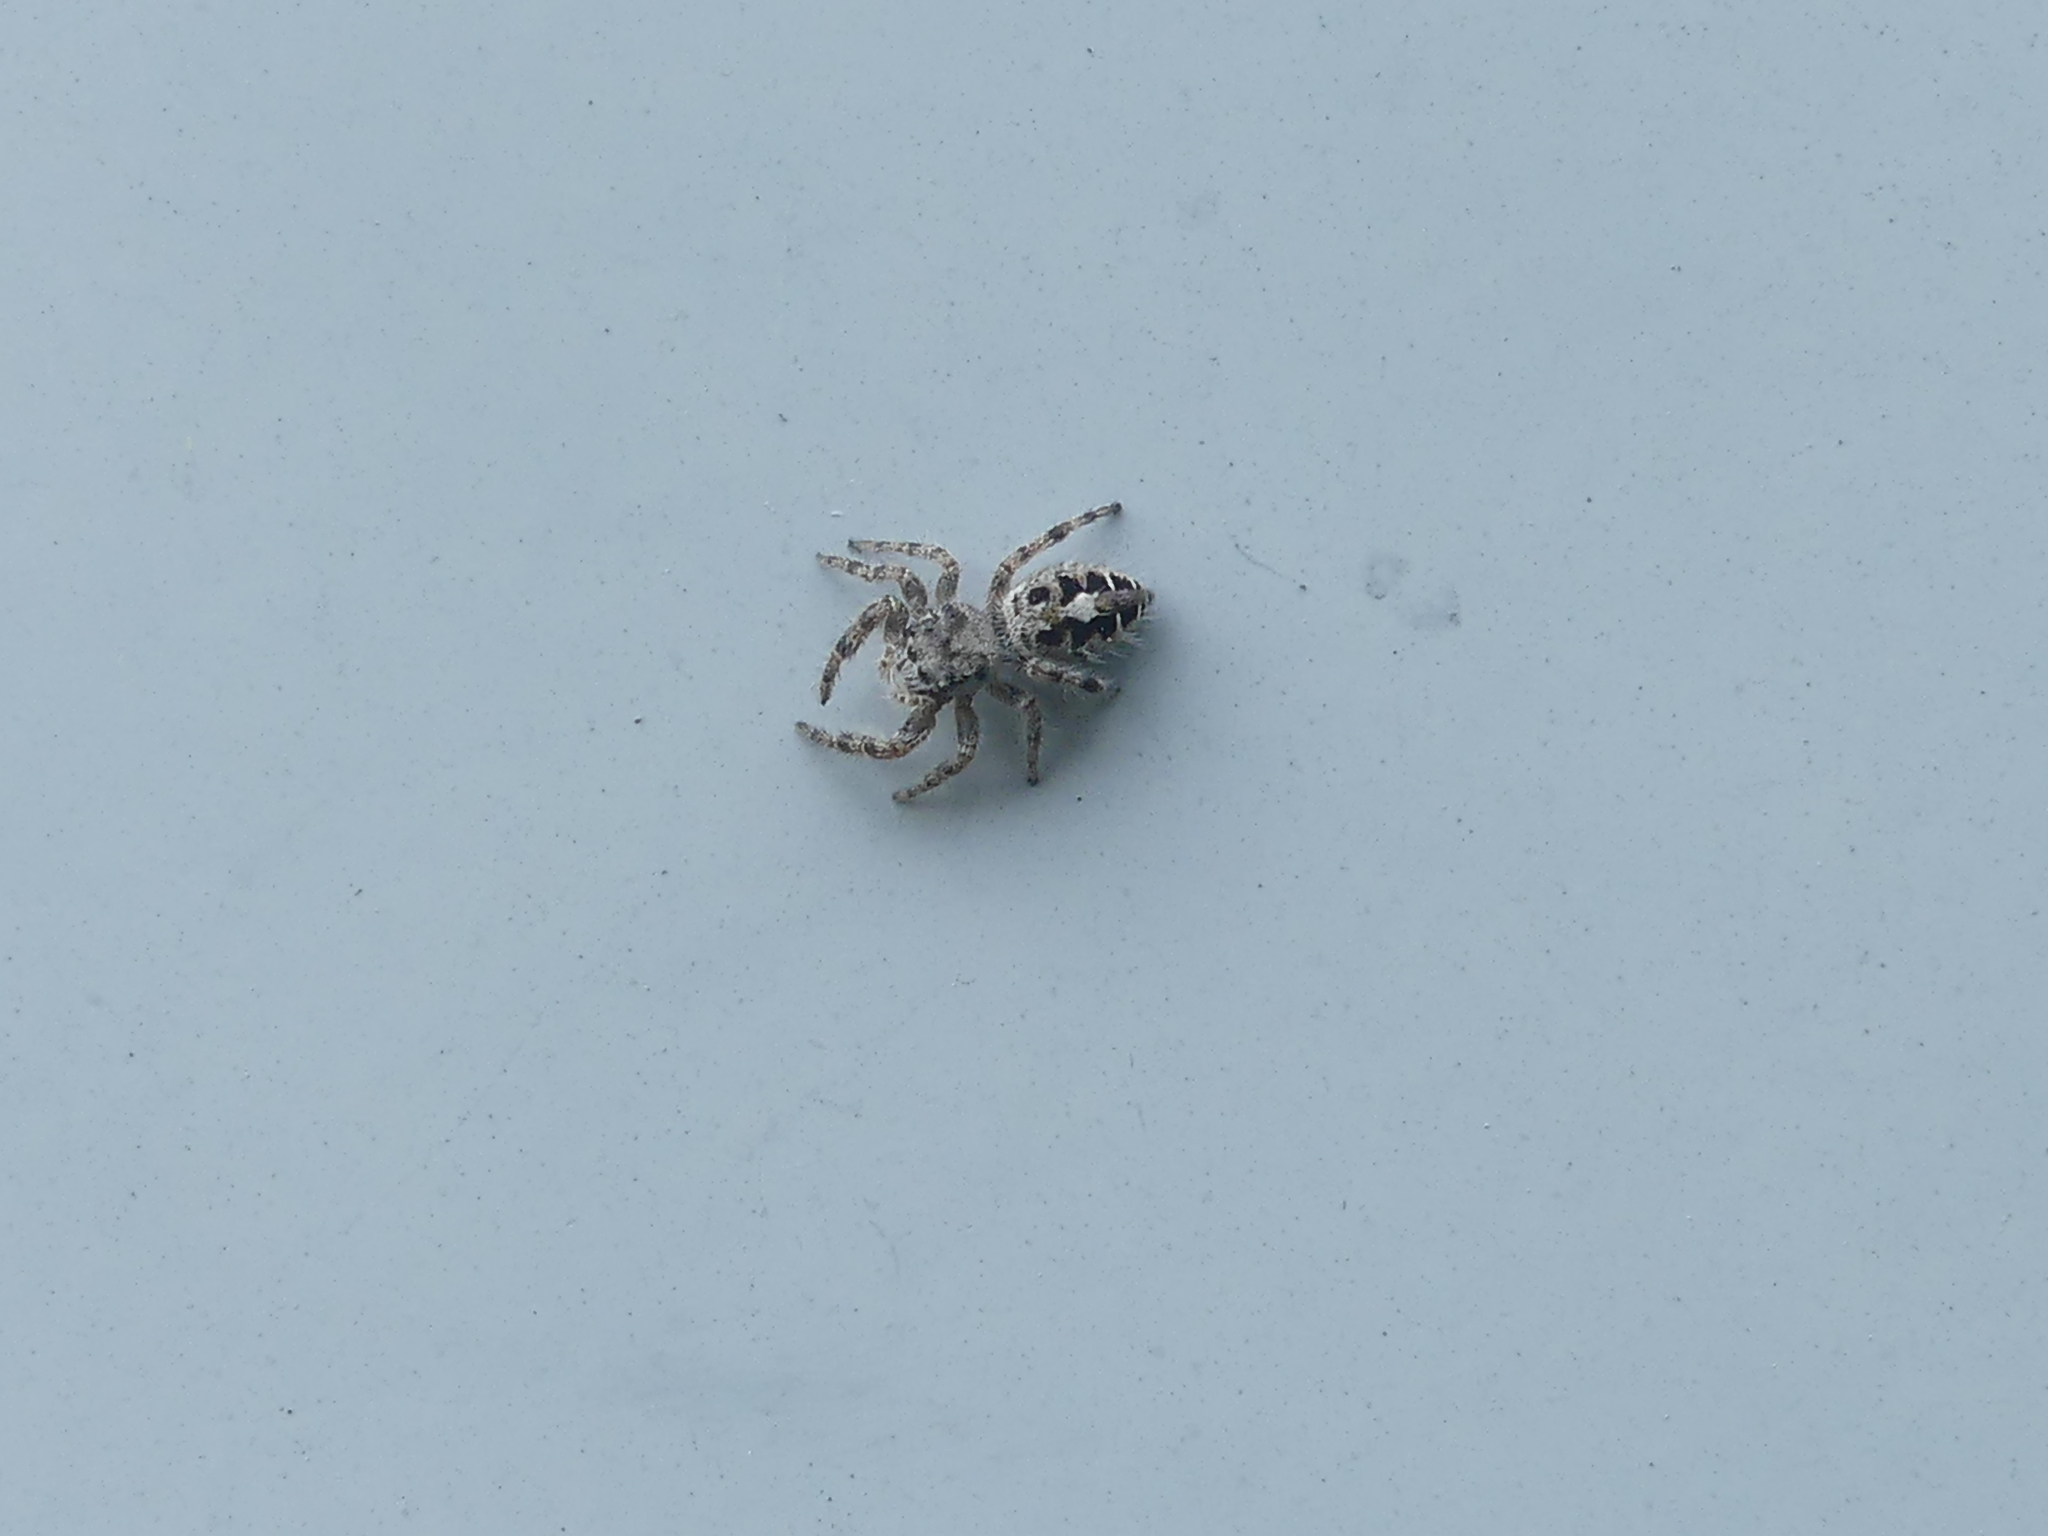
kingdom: Animalia
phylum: Arthropoda
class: Arachnida
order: Araneae
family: Salticidae
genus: Phidippus
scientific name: Phidippus putnami
